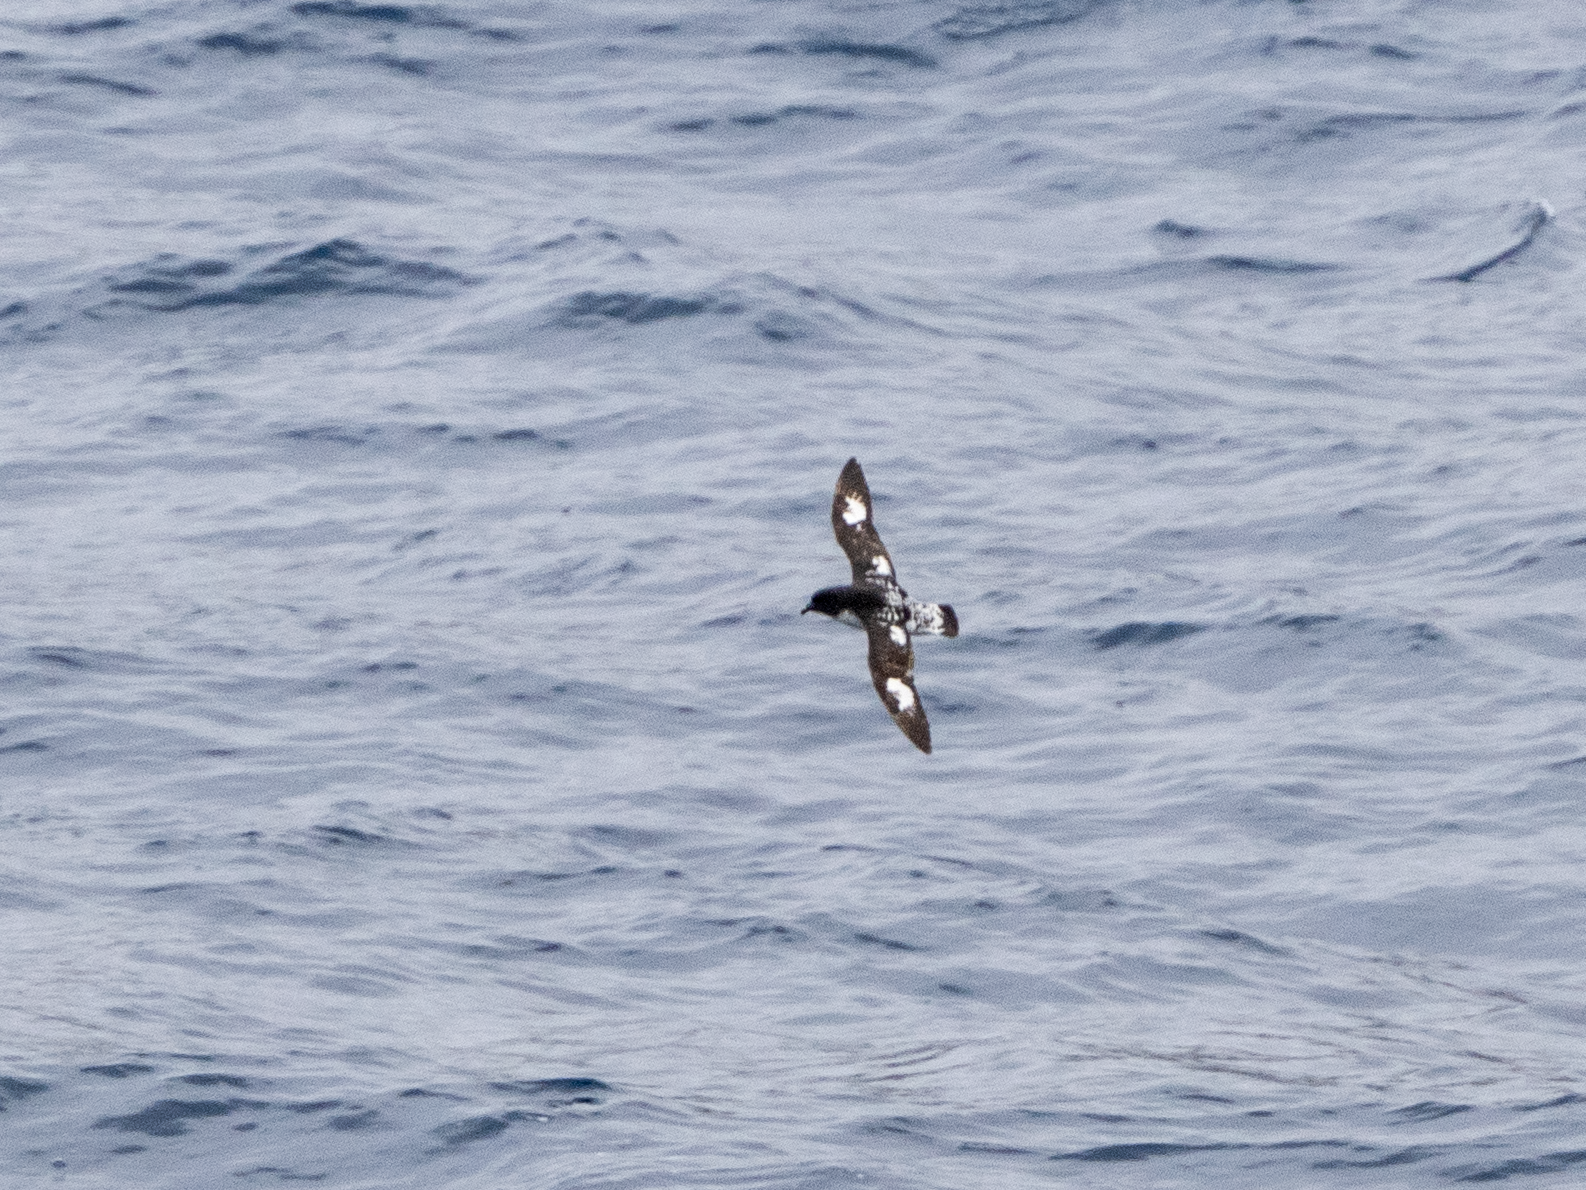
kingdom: Animalia
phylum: Chordata
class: Aves
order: Procellariiformes
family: Procellariidae
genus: Daption
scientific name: Daption capense
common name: Cape petrel
